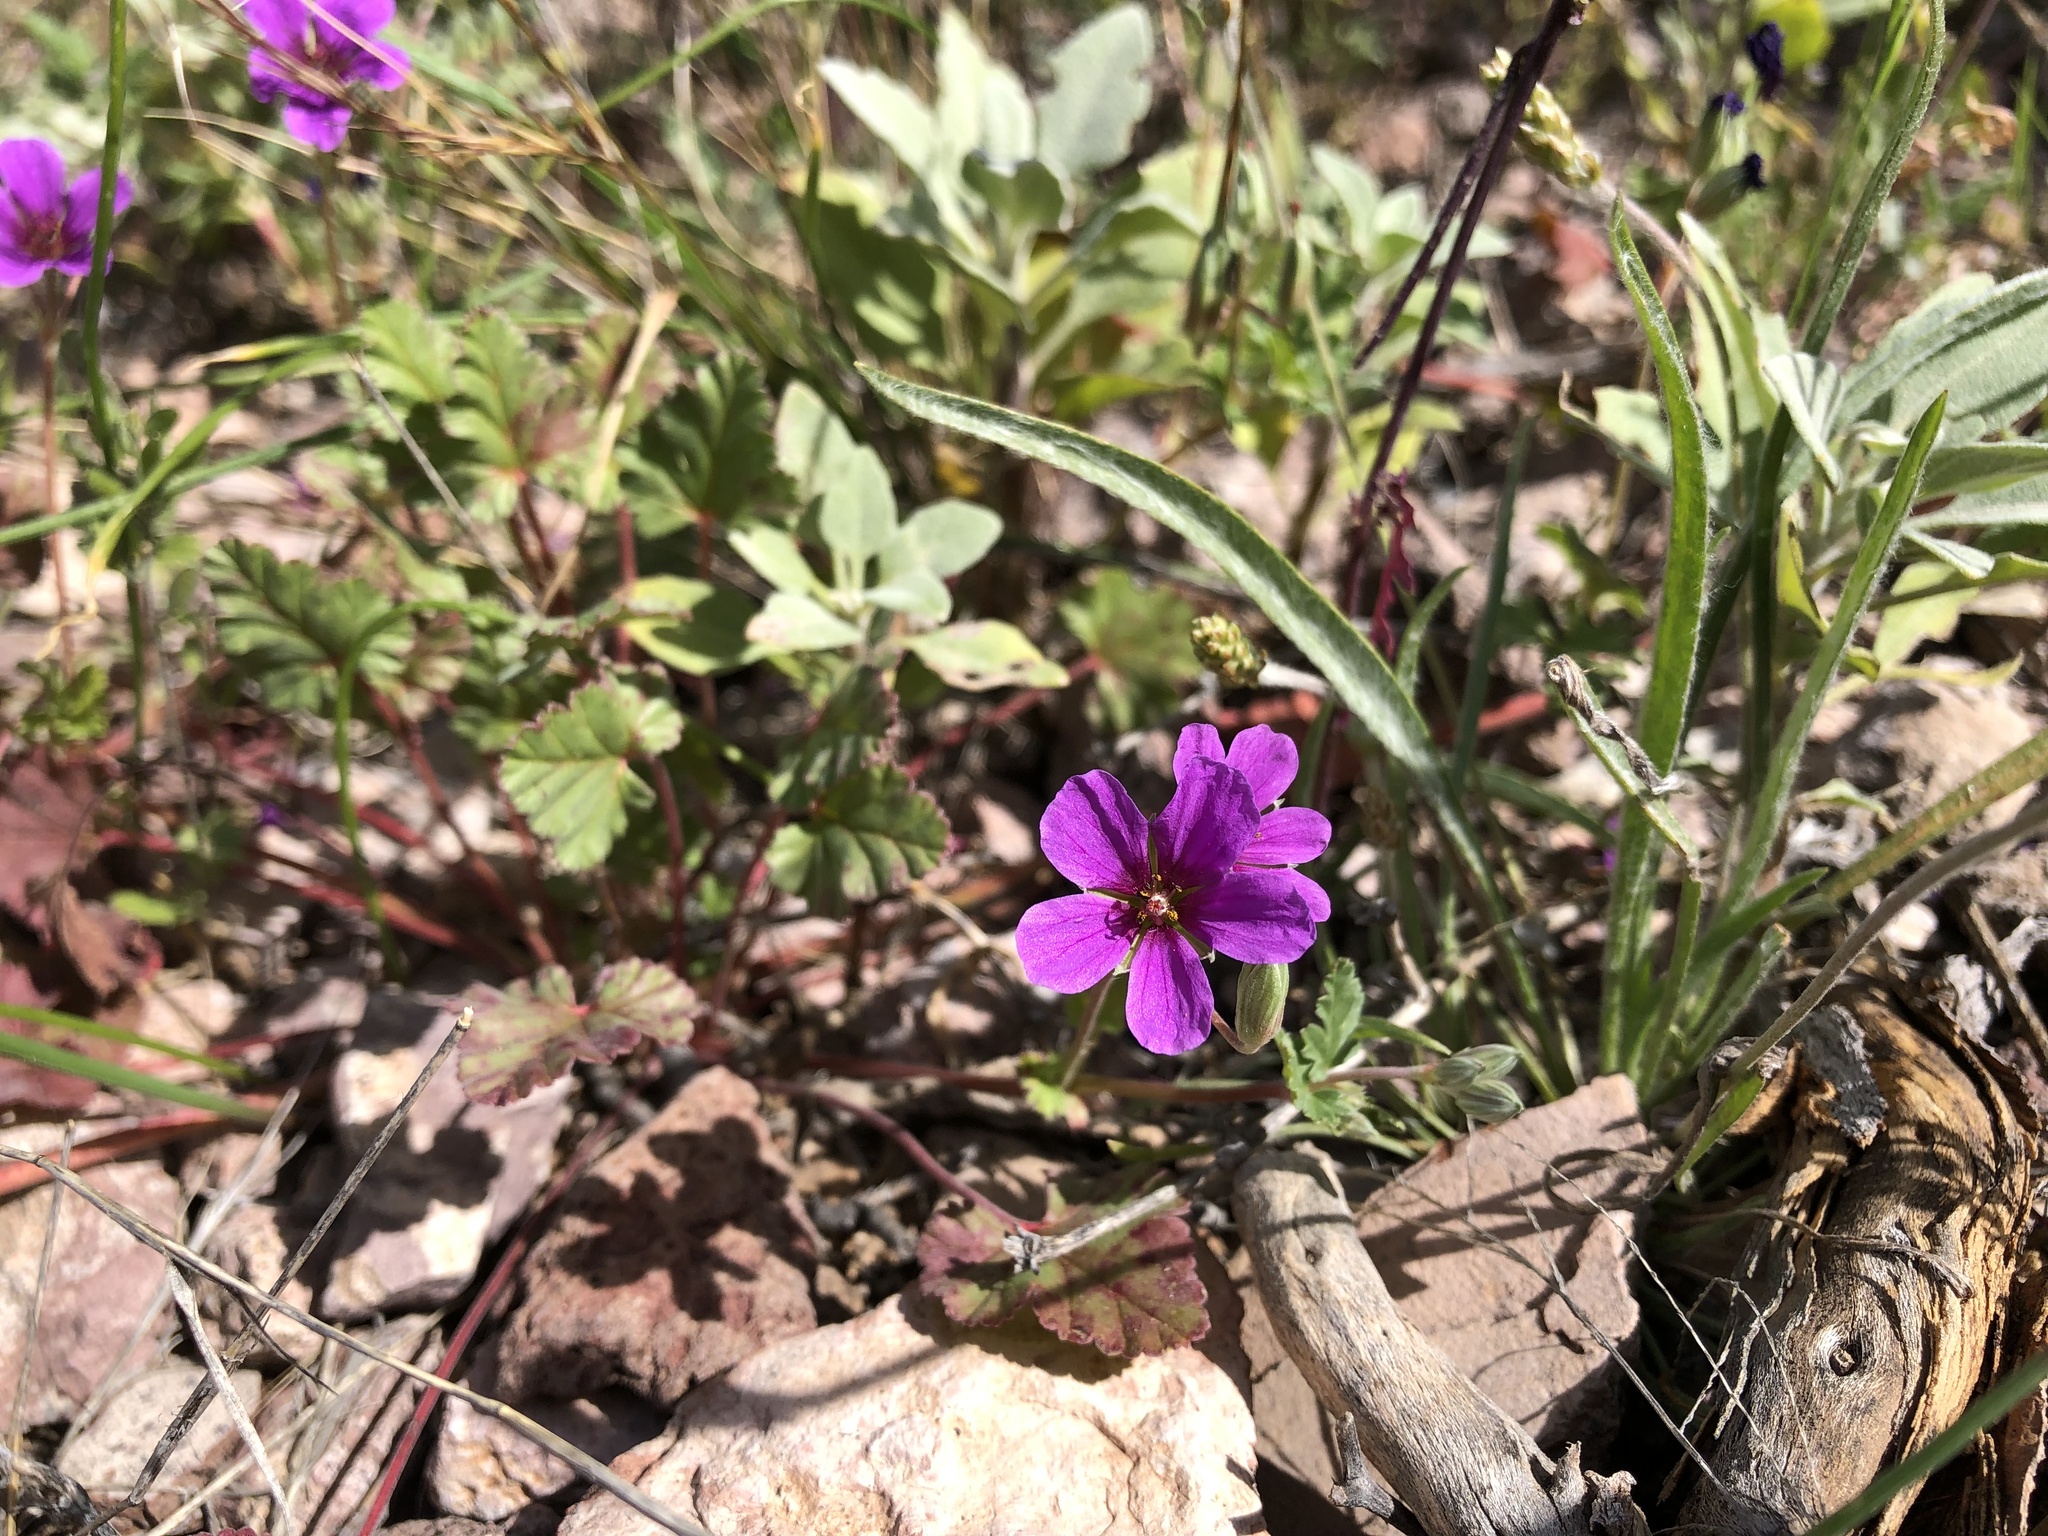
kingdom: Plantae
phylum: Tracheophyta
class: Magnoliopsida
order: Geraniales
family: Geraniaceae
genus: Erodium
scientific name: Erodium texanum
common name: Texas stork's-bill
